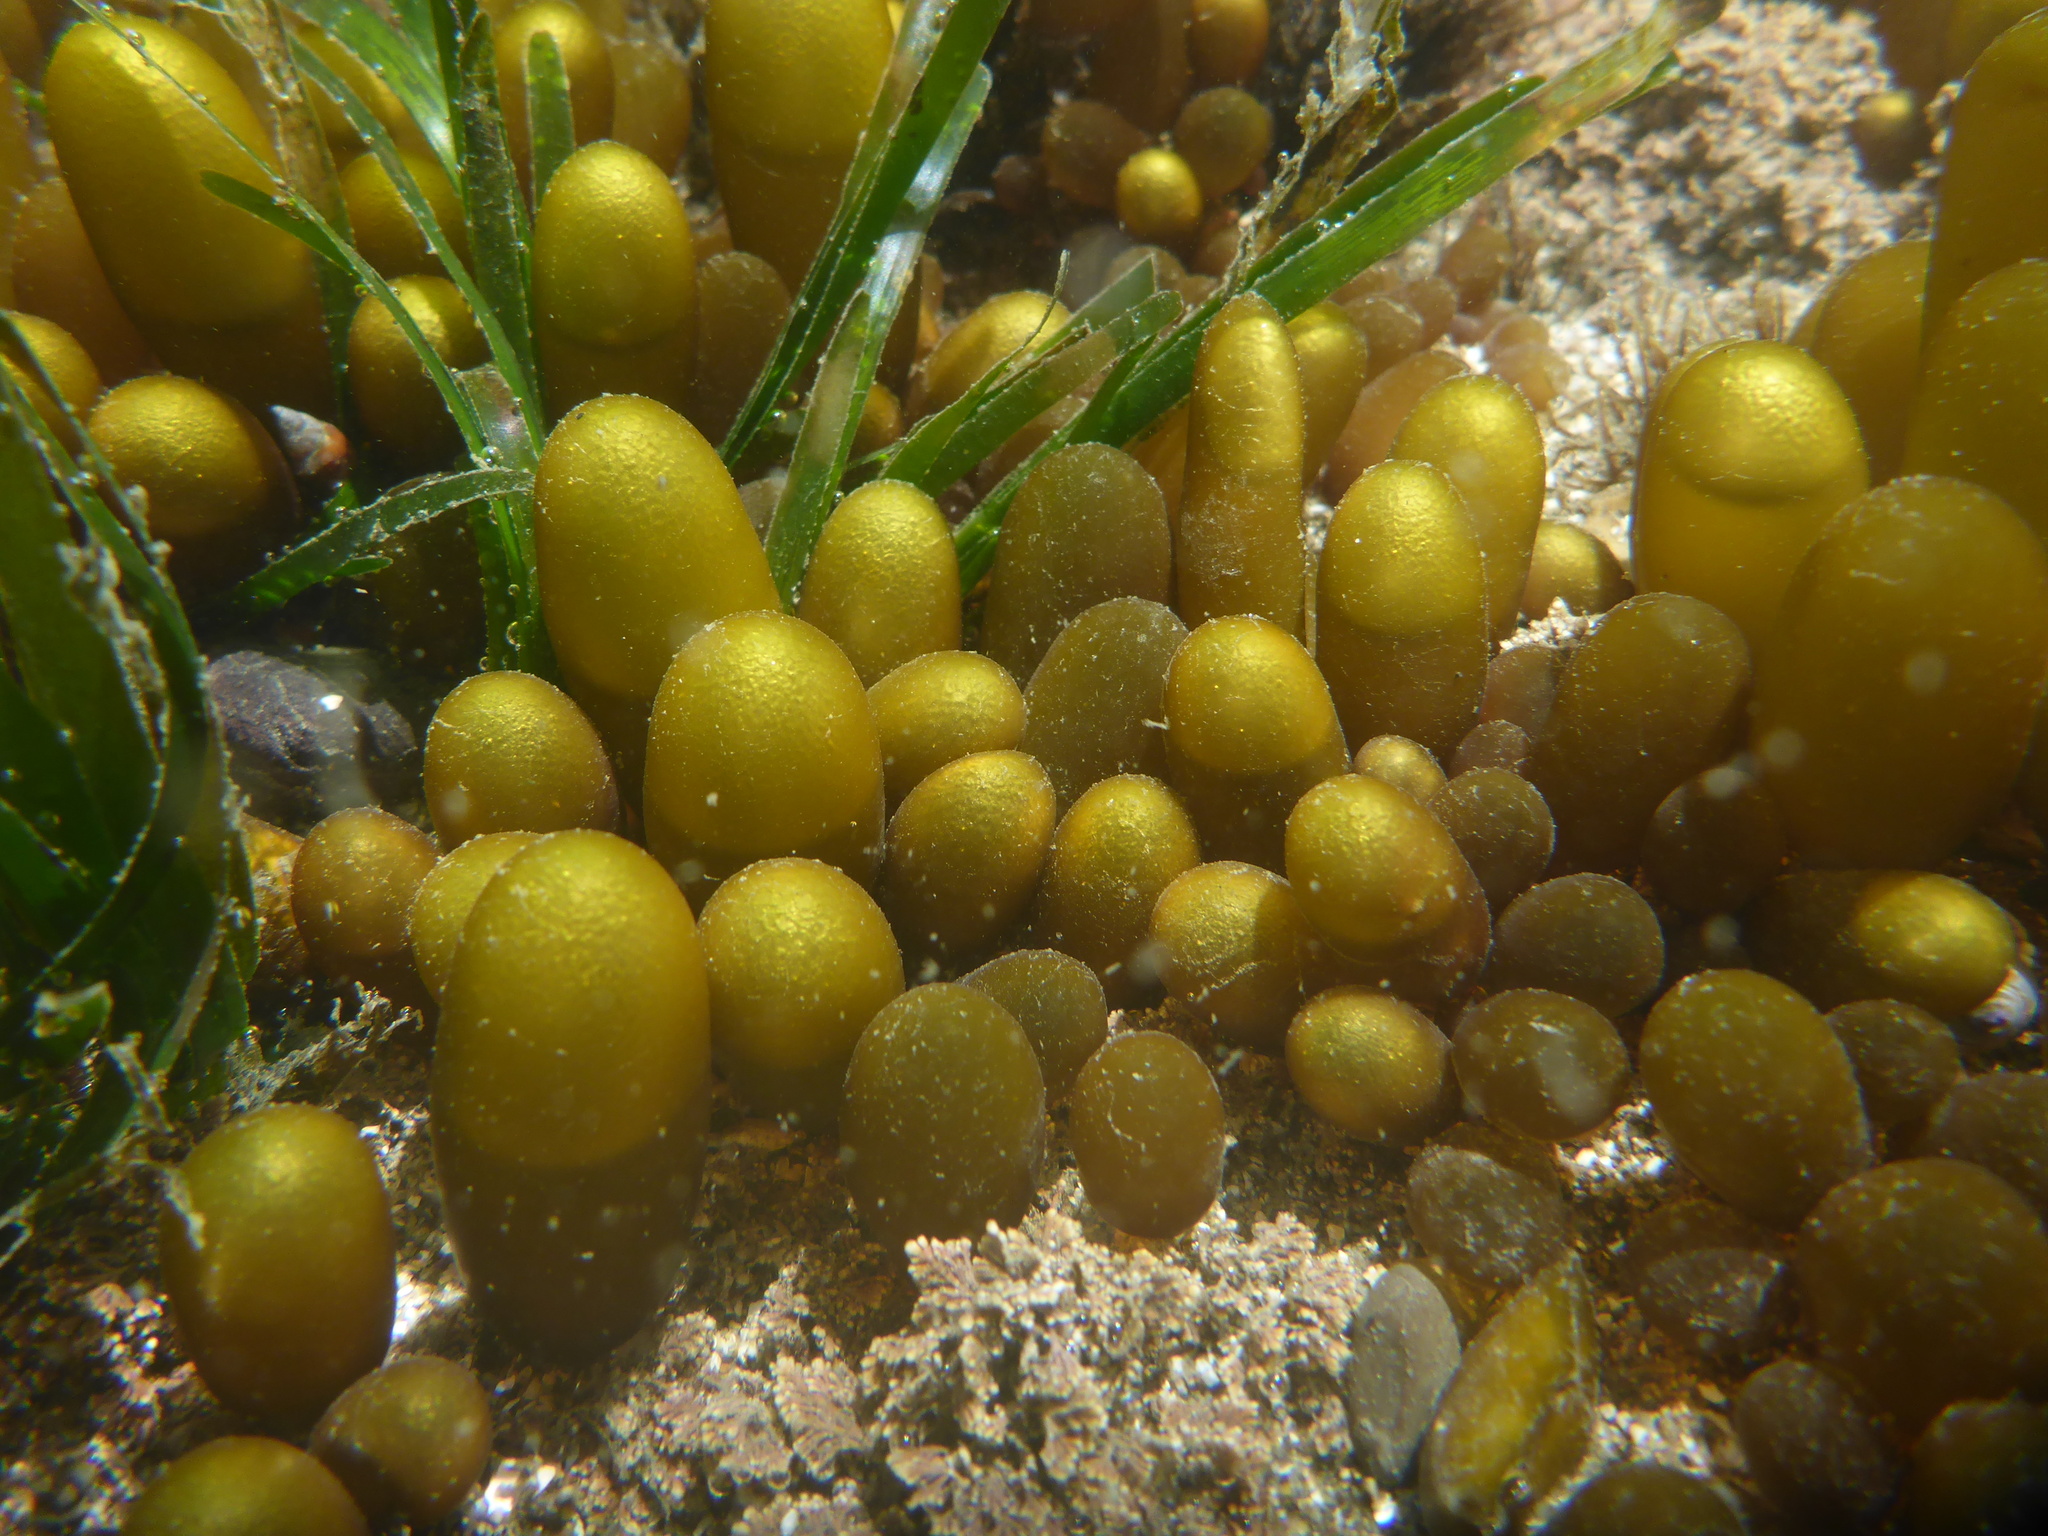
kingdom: Plantae
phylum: Rhodophyta
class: Florideophyceae
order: Palmariales
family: Palmariaceae
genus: Halosaccion
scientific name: Halosaccion glandiforme
